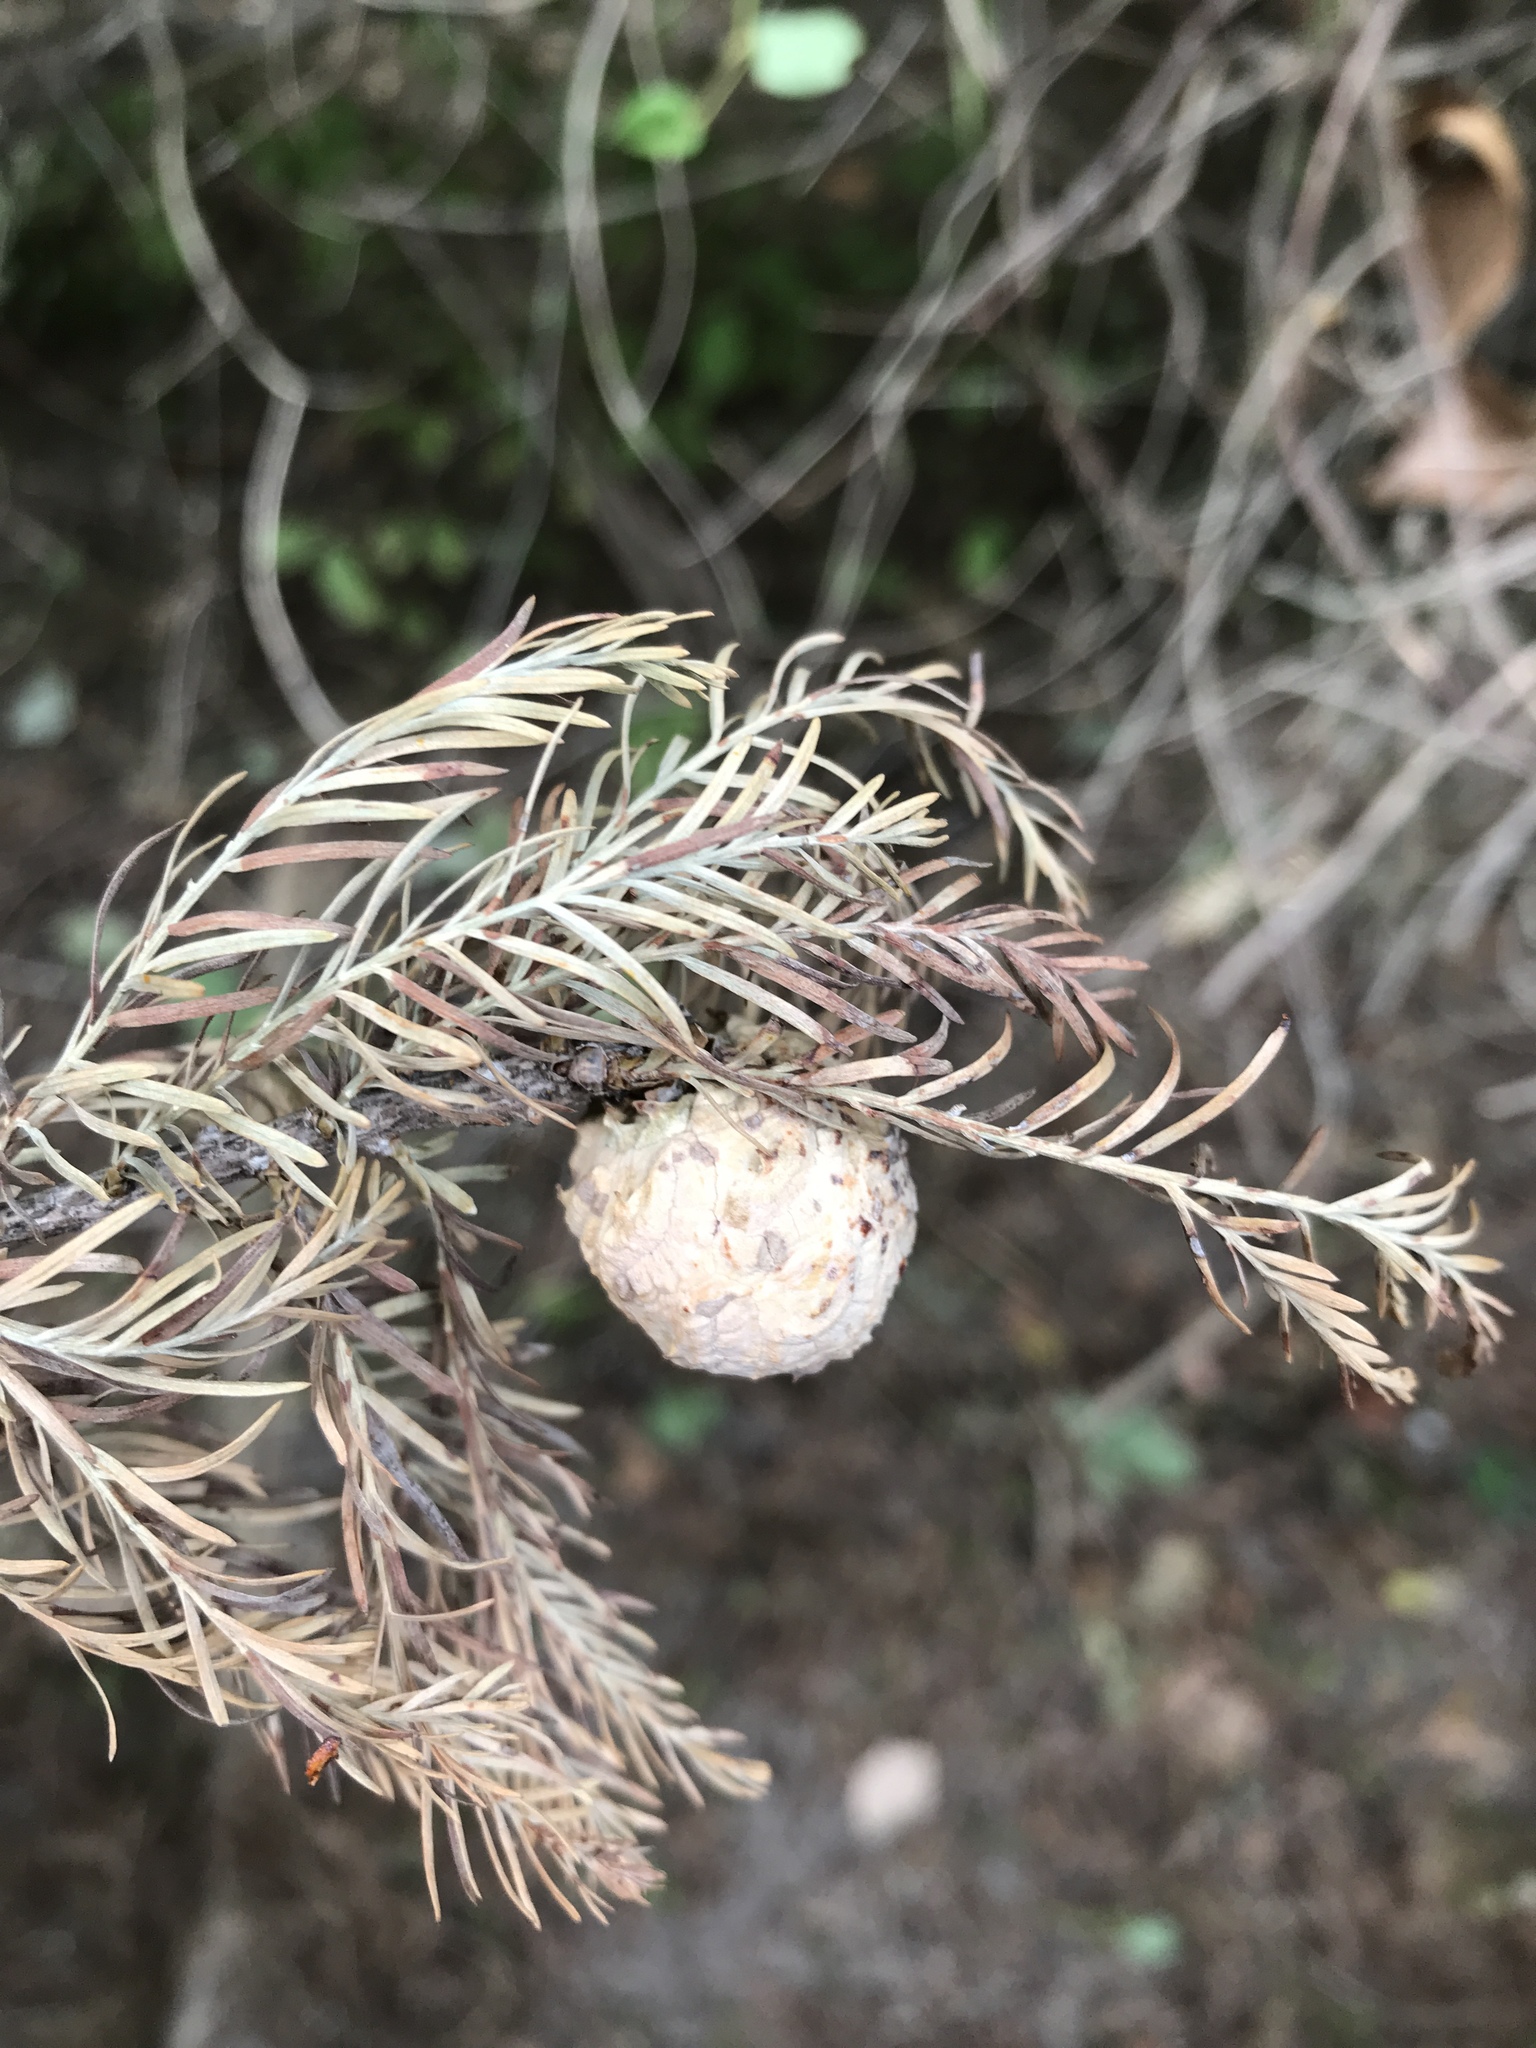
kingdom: Plantae
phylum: Tracheophyta
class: Pinopsida
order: Pinales
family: Cupressaceae
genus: Taxodium
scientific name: Taxodium distichum
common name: Bald cypress
